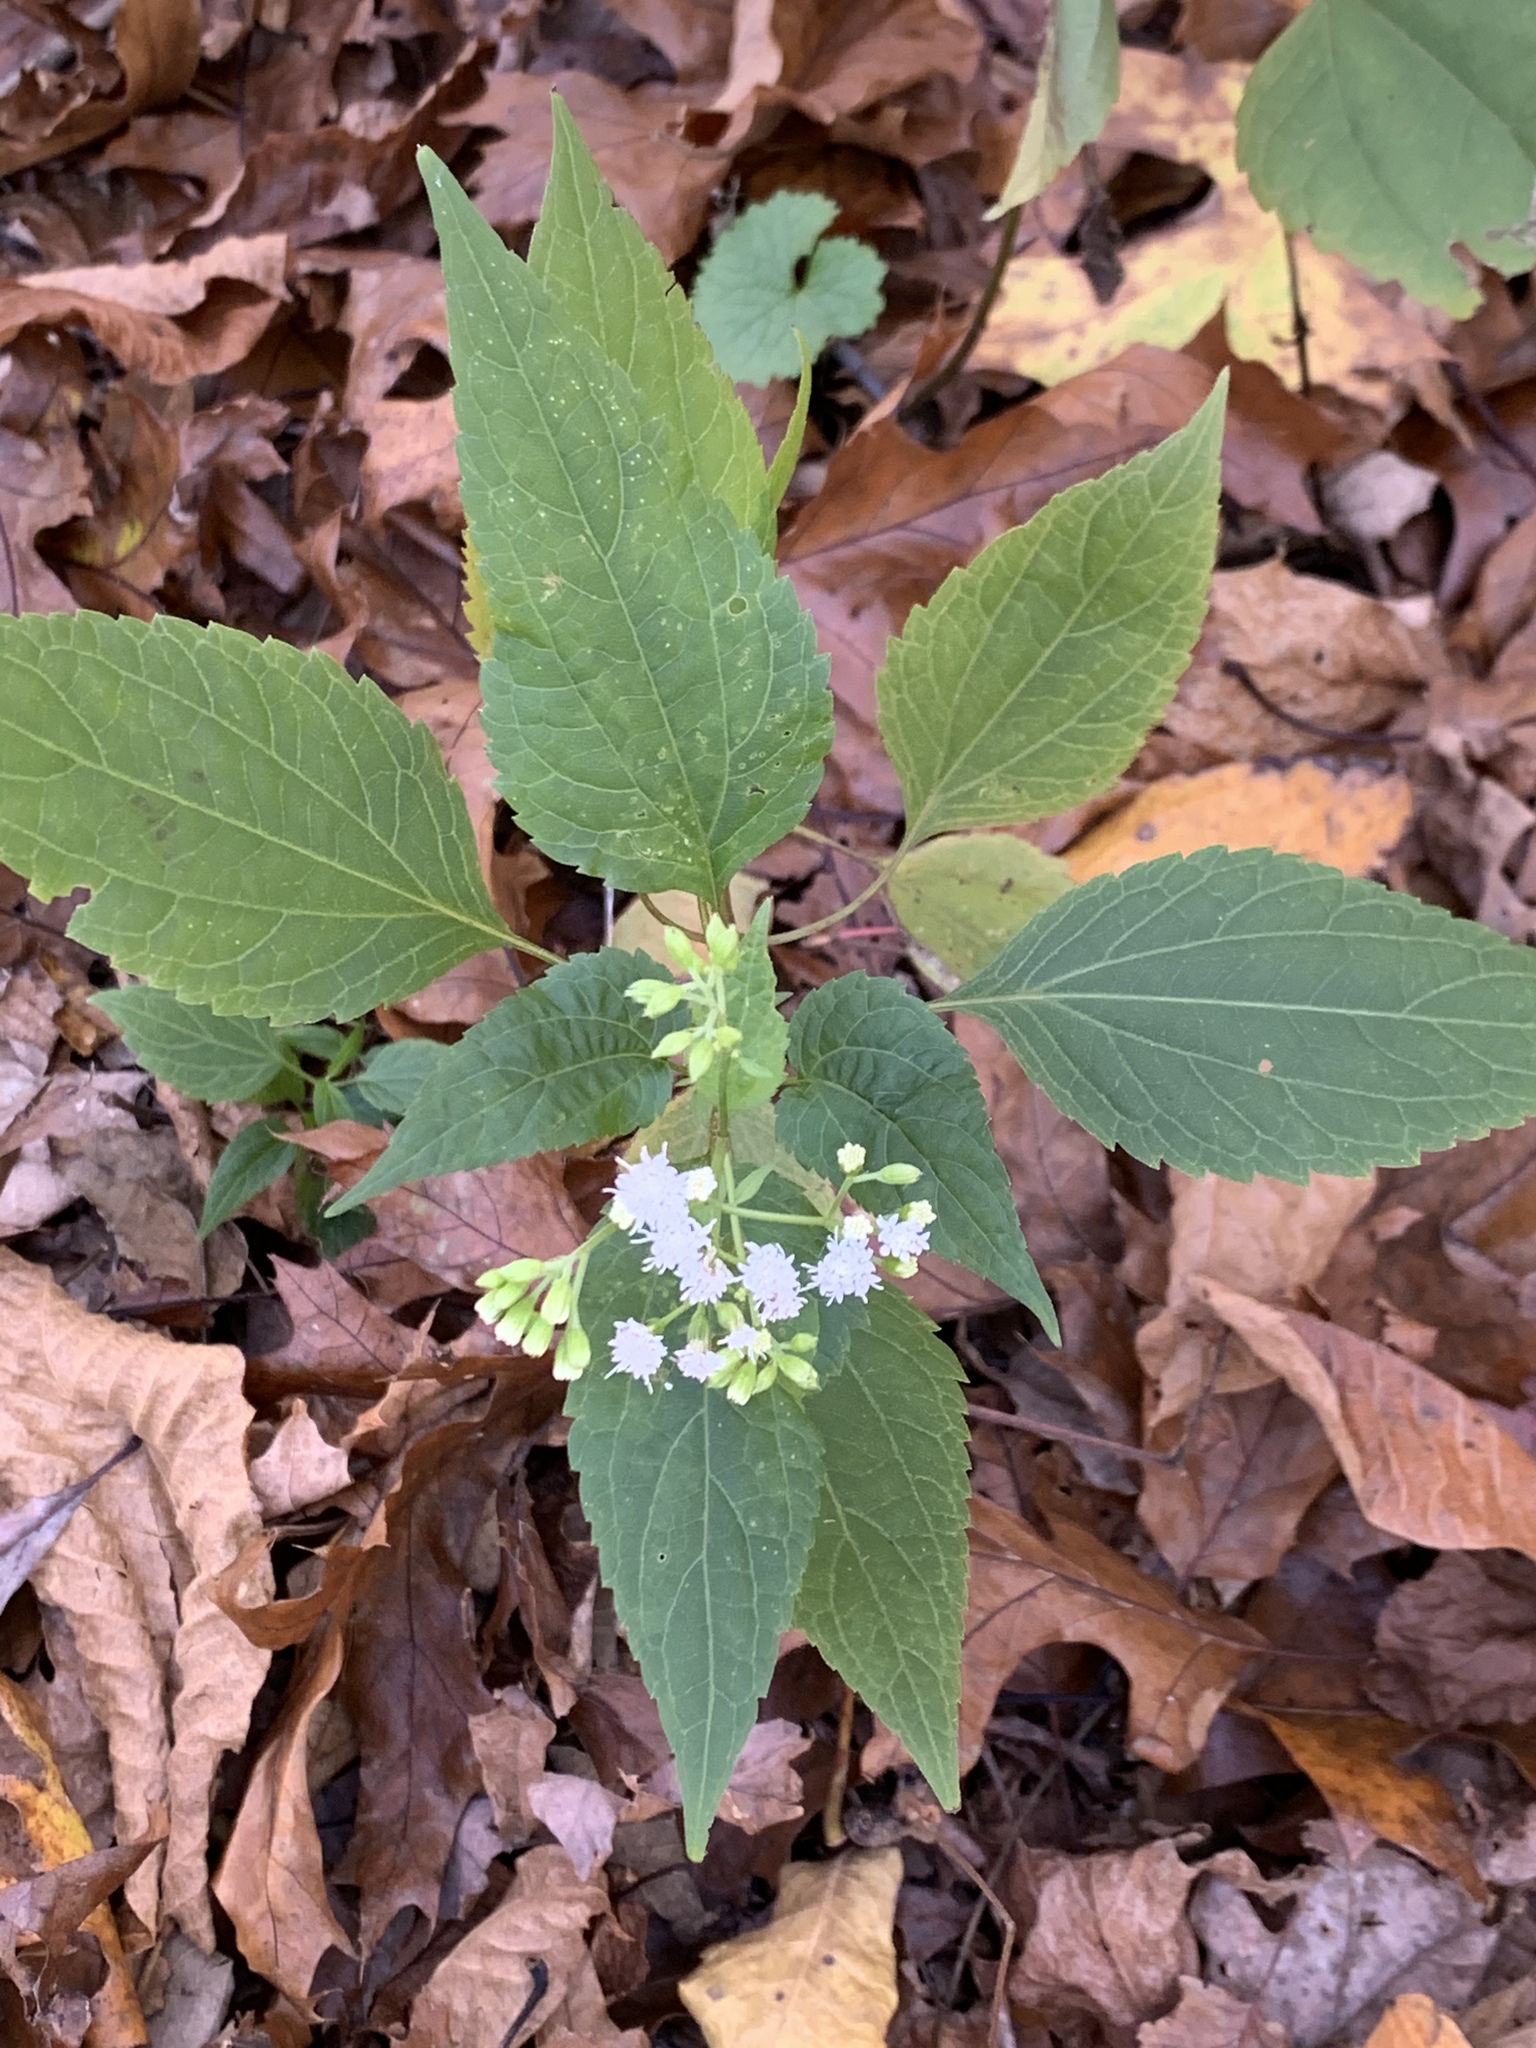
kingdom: Plantae
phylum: Tracheophyta
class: Magnoliopsida
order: Asterales
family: Asteraceae
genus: Ageratina
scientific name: Ageratina altissima
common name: White snakeroot
